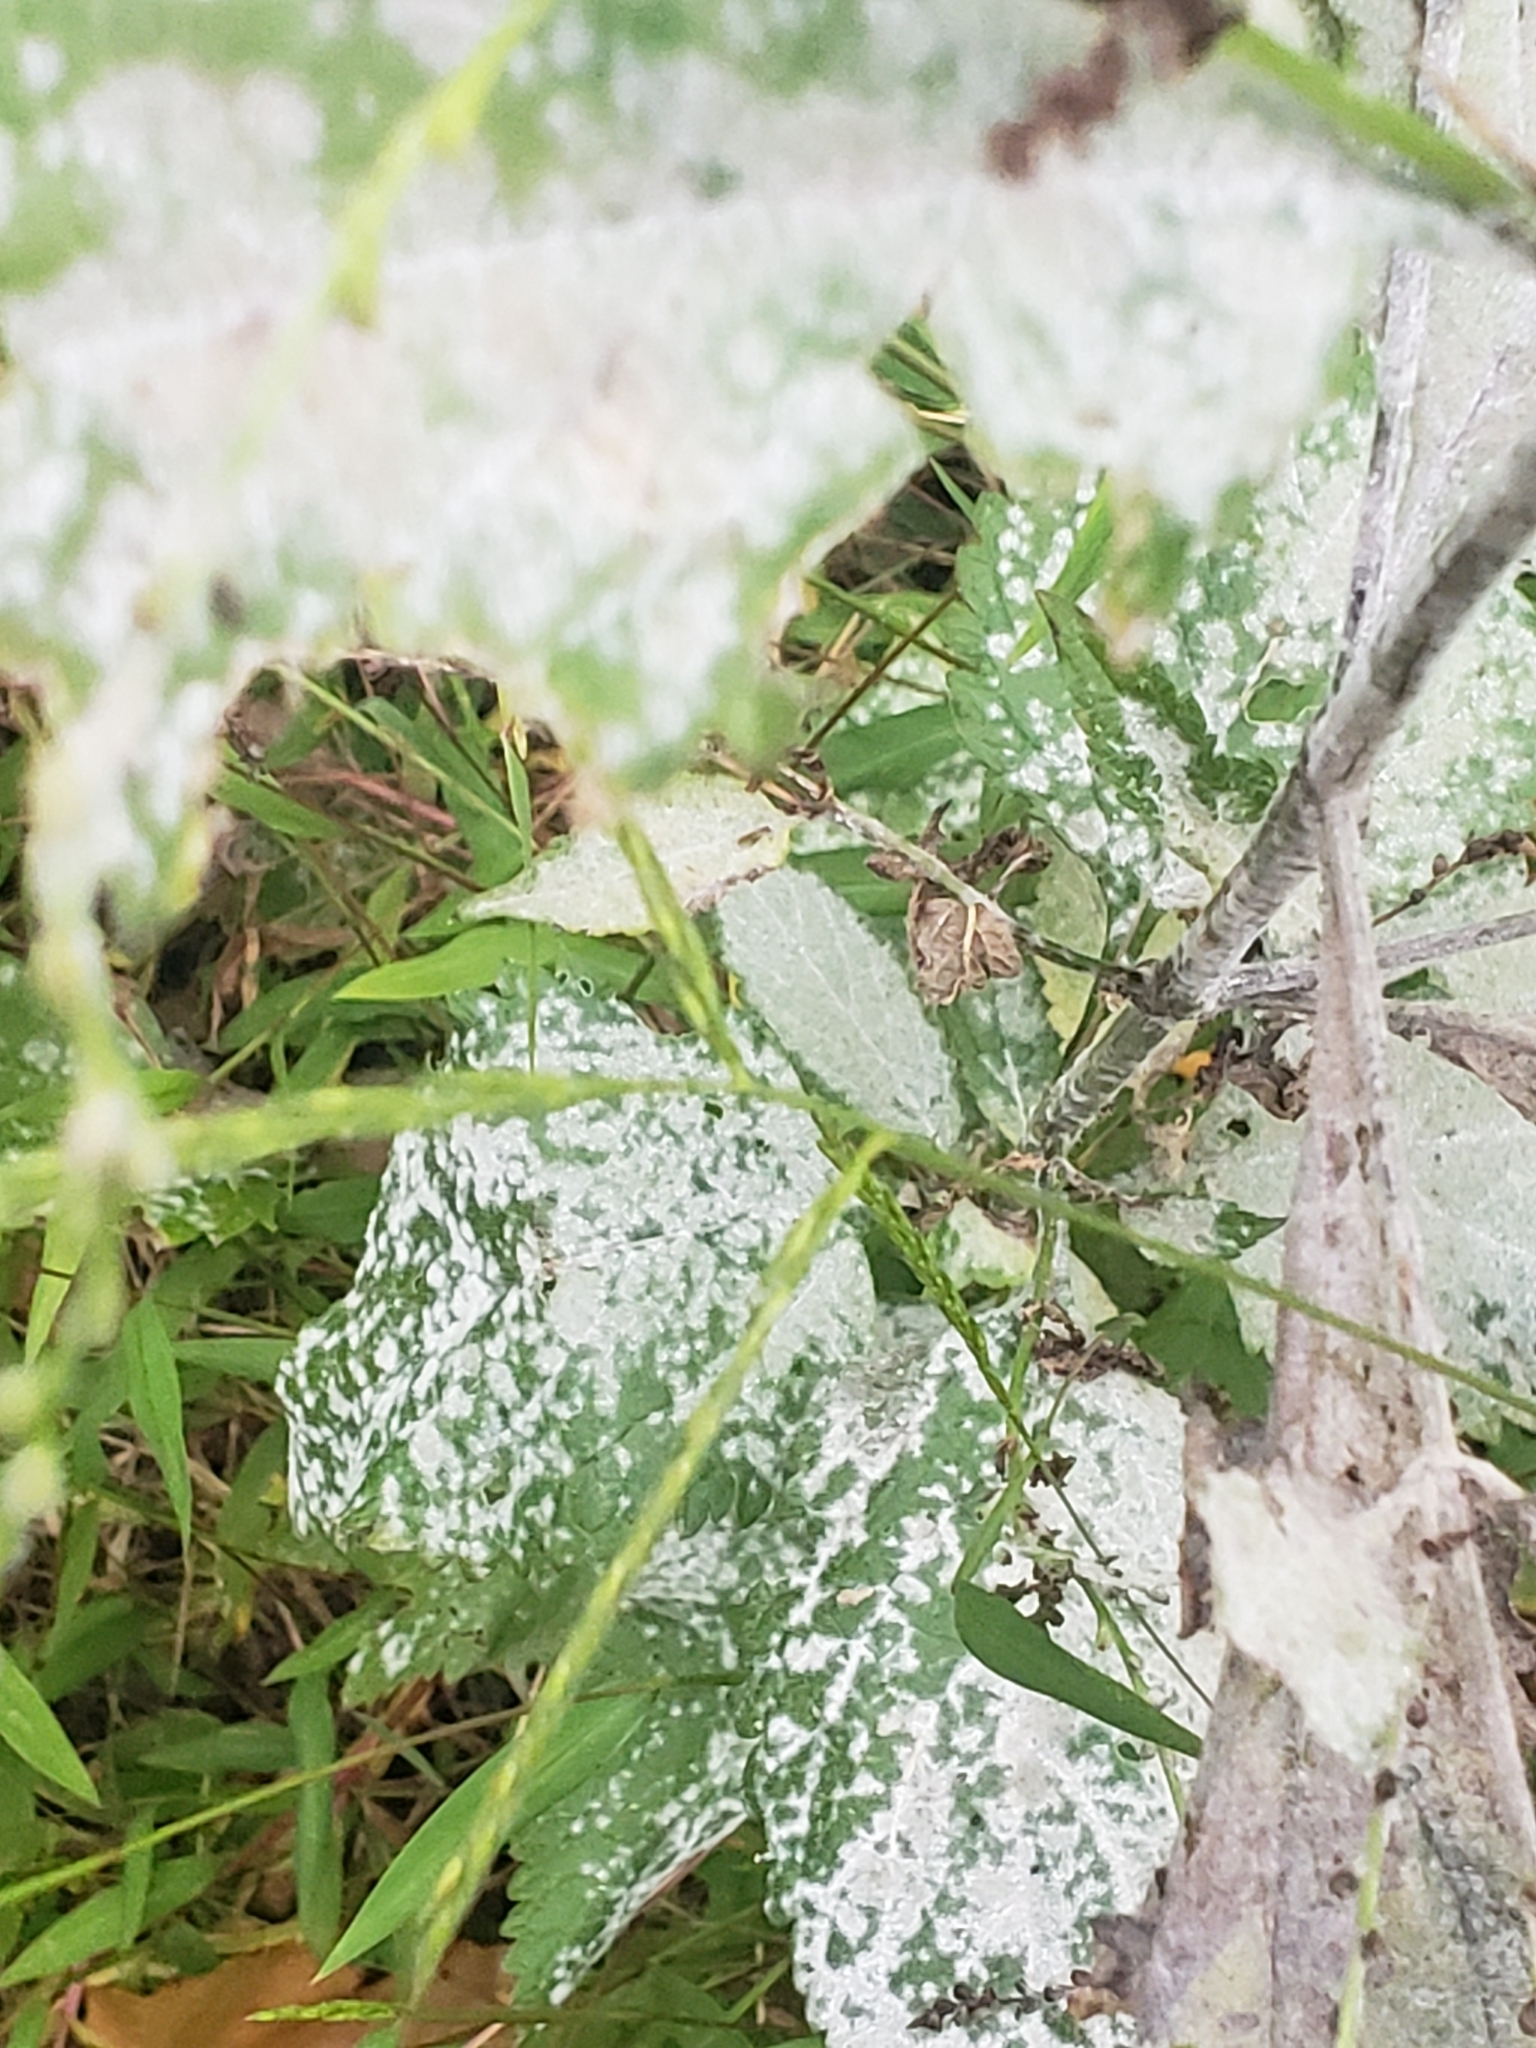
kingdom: Fungi
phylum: Ascomycota
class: Leotiomycetes
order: Helotiales
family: Erysiphaceae
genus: Golovinomyces
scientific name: Golovinomyces verbenae
